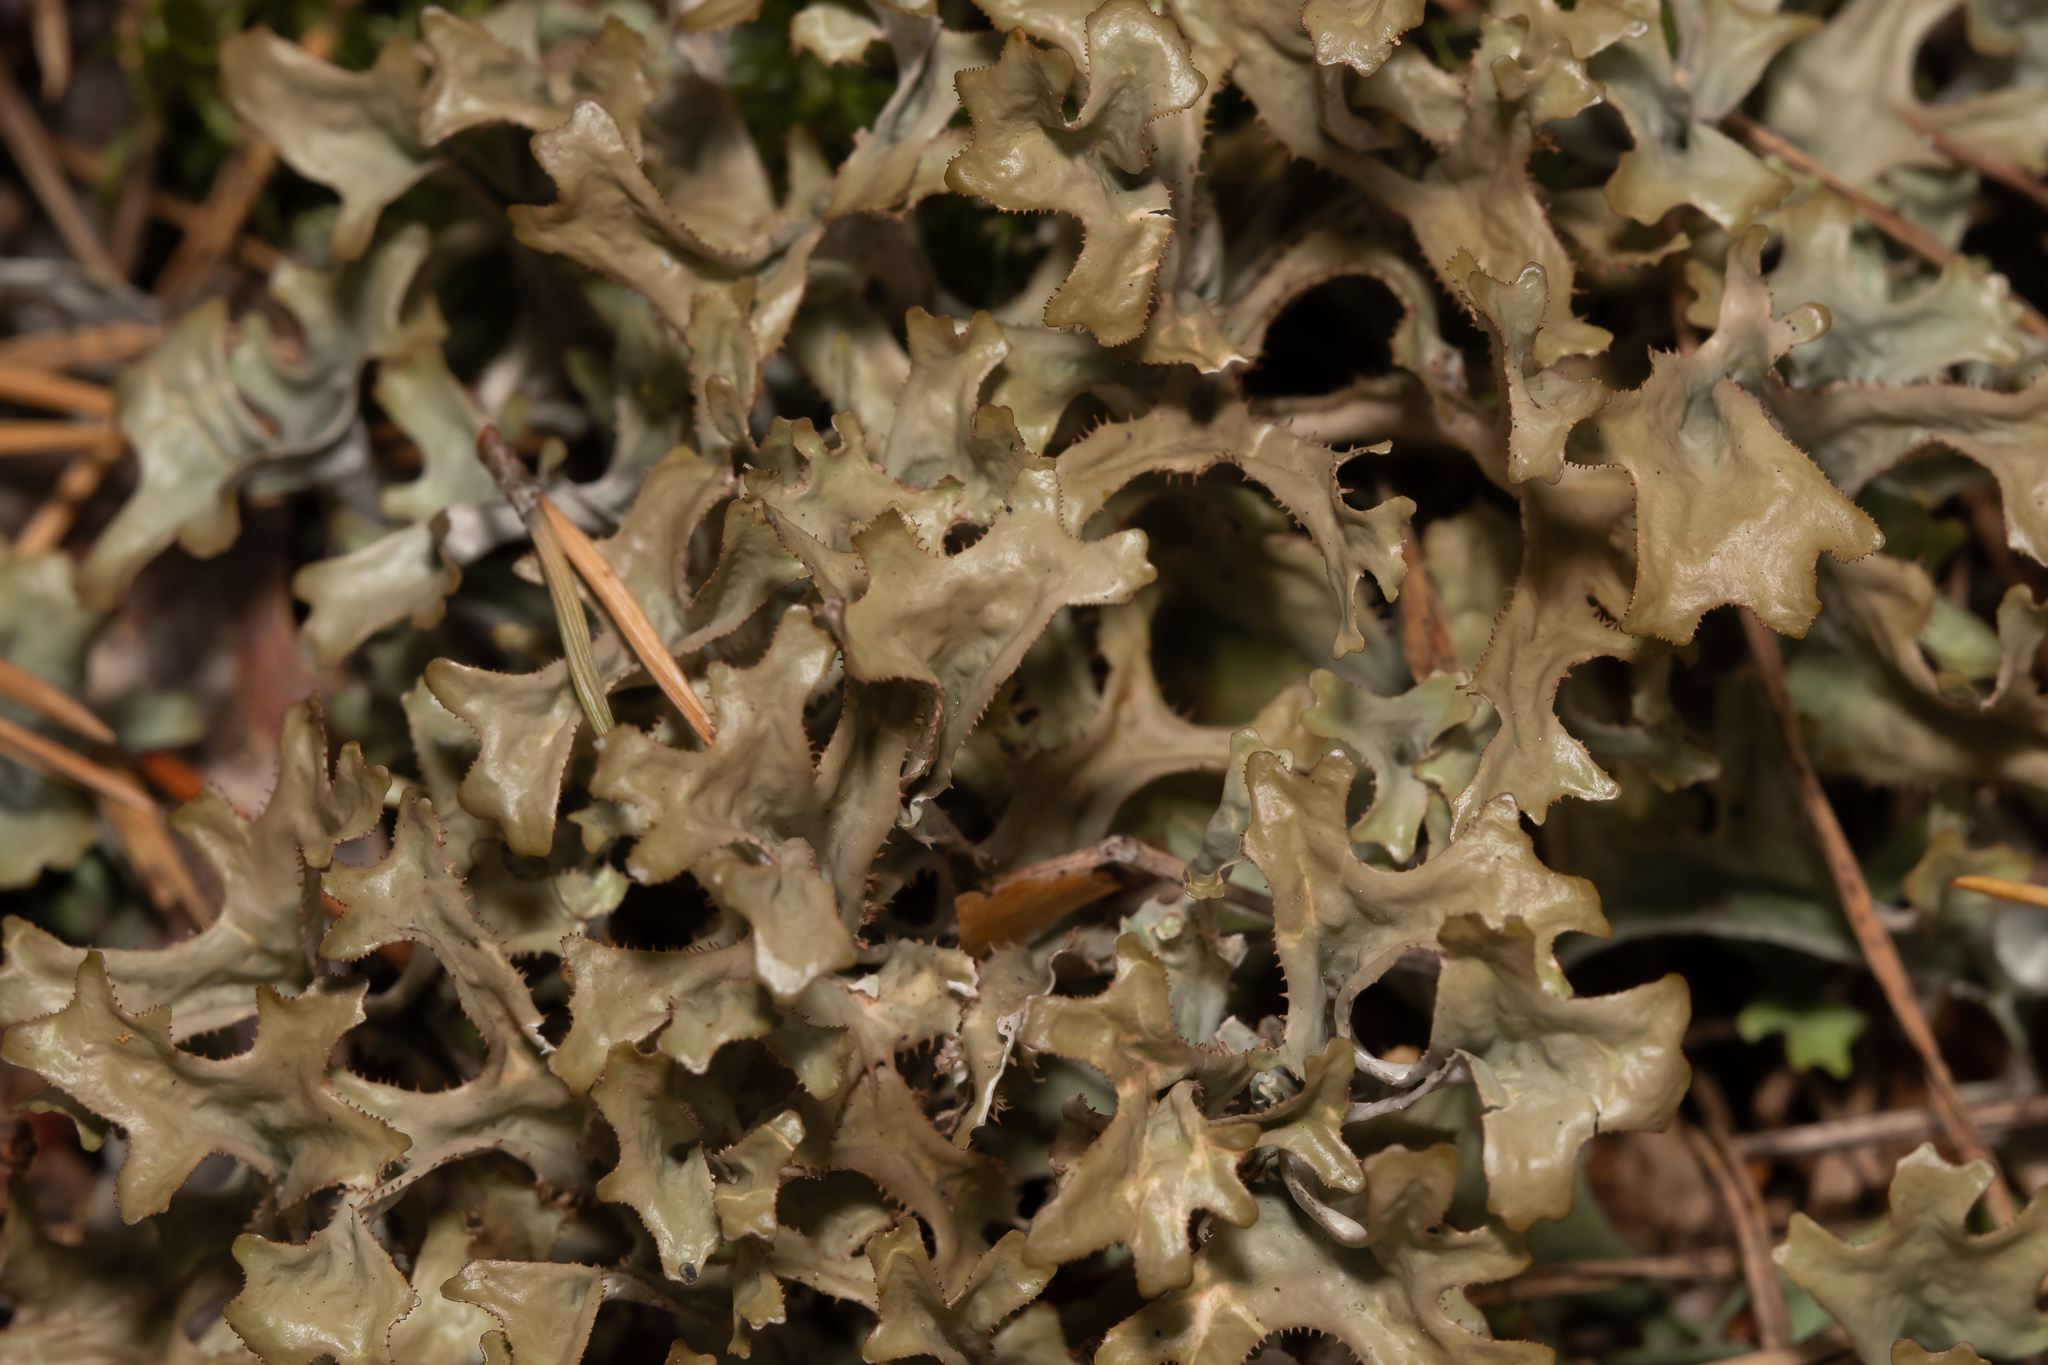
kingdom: Fungi
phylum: Ascomycota
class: Lecanoromycetes
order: Lecanorales
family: Parmeliaceae
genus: Cetraria
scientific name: Cetraria islandica
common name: Iceland lichen
